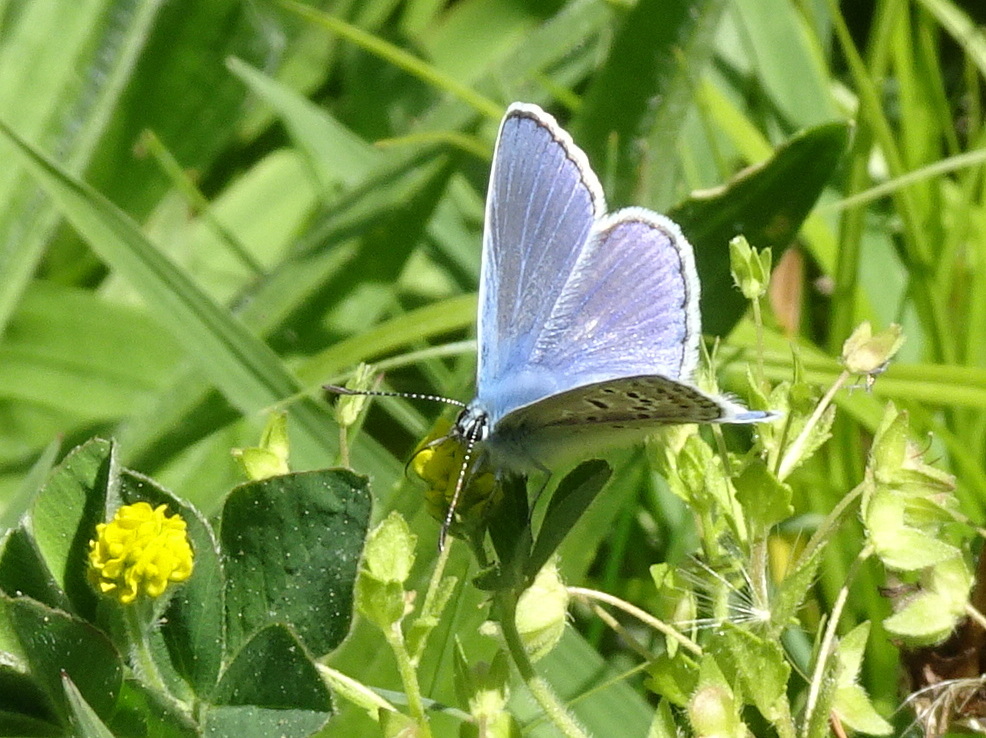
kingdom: Animalia
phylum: Arthropoda
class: Insecta
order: Lepidoptera
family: Lycaenidae
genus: Polyommatus
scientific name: Polyommatus icarus
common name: Common blue
